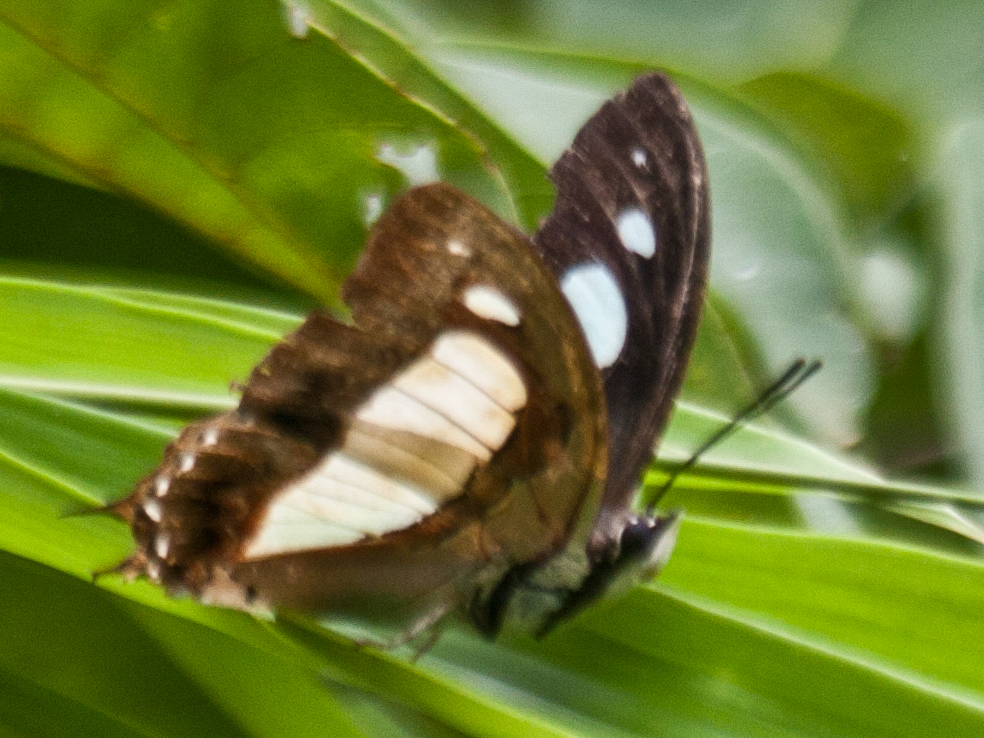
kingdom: Animalia
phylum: Arthropoda
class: Insecta
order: Lepidoptera
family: Nymphalidae
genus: Polyura
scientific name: Polyura arja
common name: Pallid nawab
